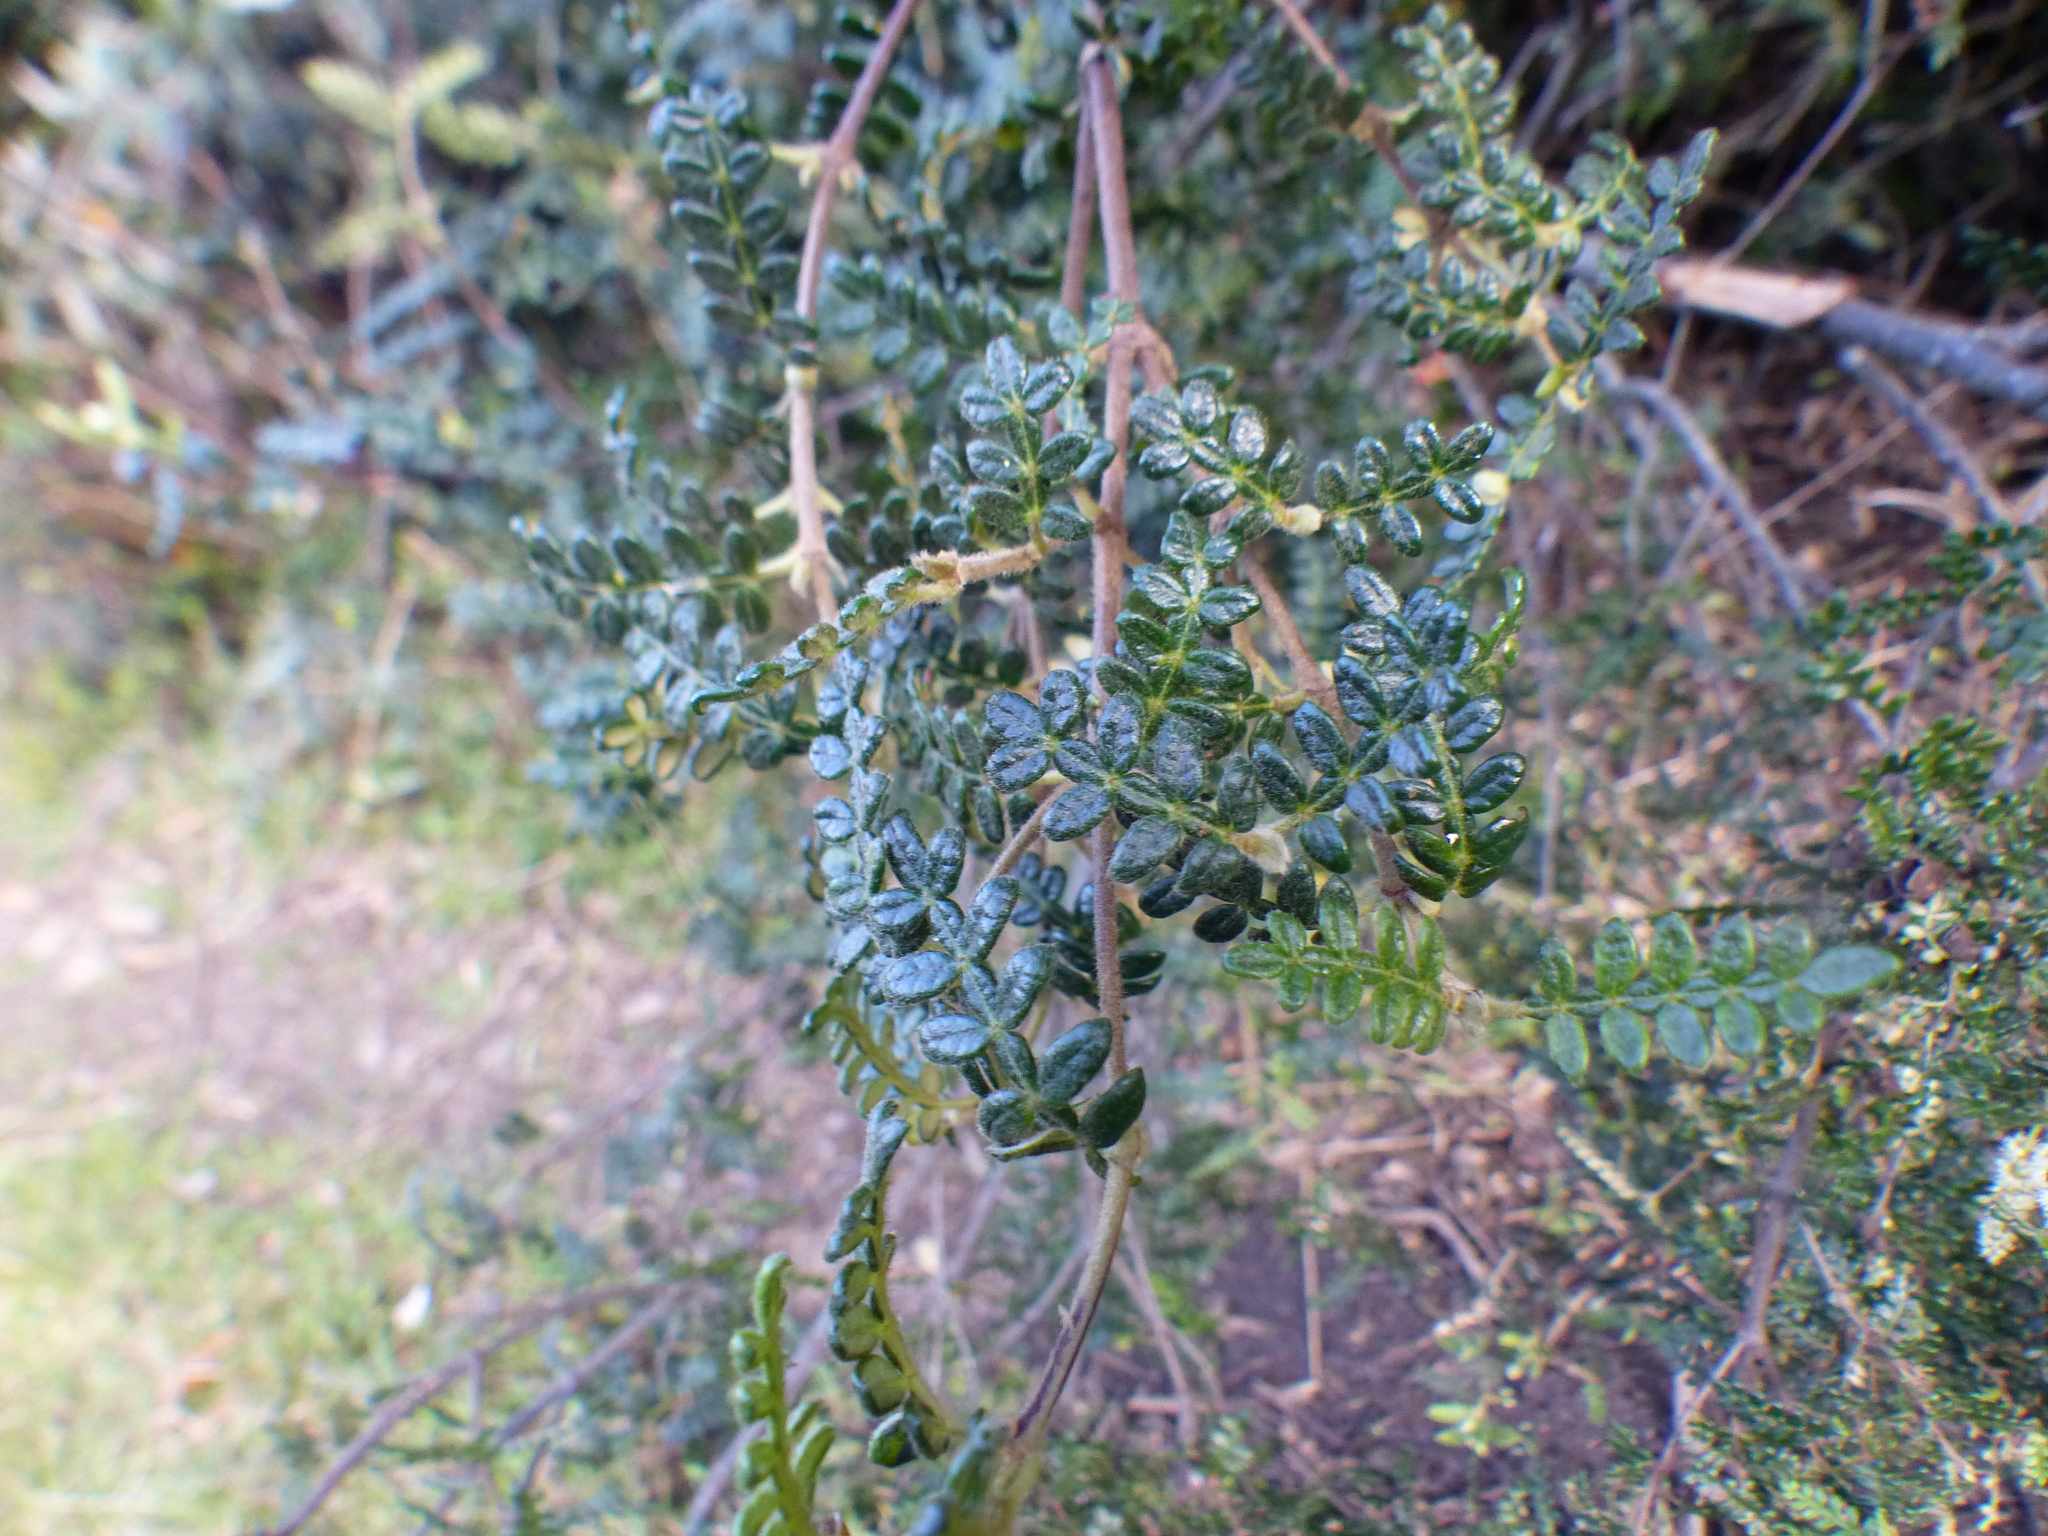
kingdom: Plantae
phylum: Tracheophyta
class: Magnoliopsida
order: Oxalidales
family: Cunoniaceae
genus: Weinmannia
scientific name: Weinmannia tomentosa
